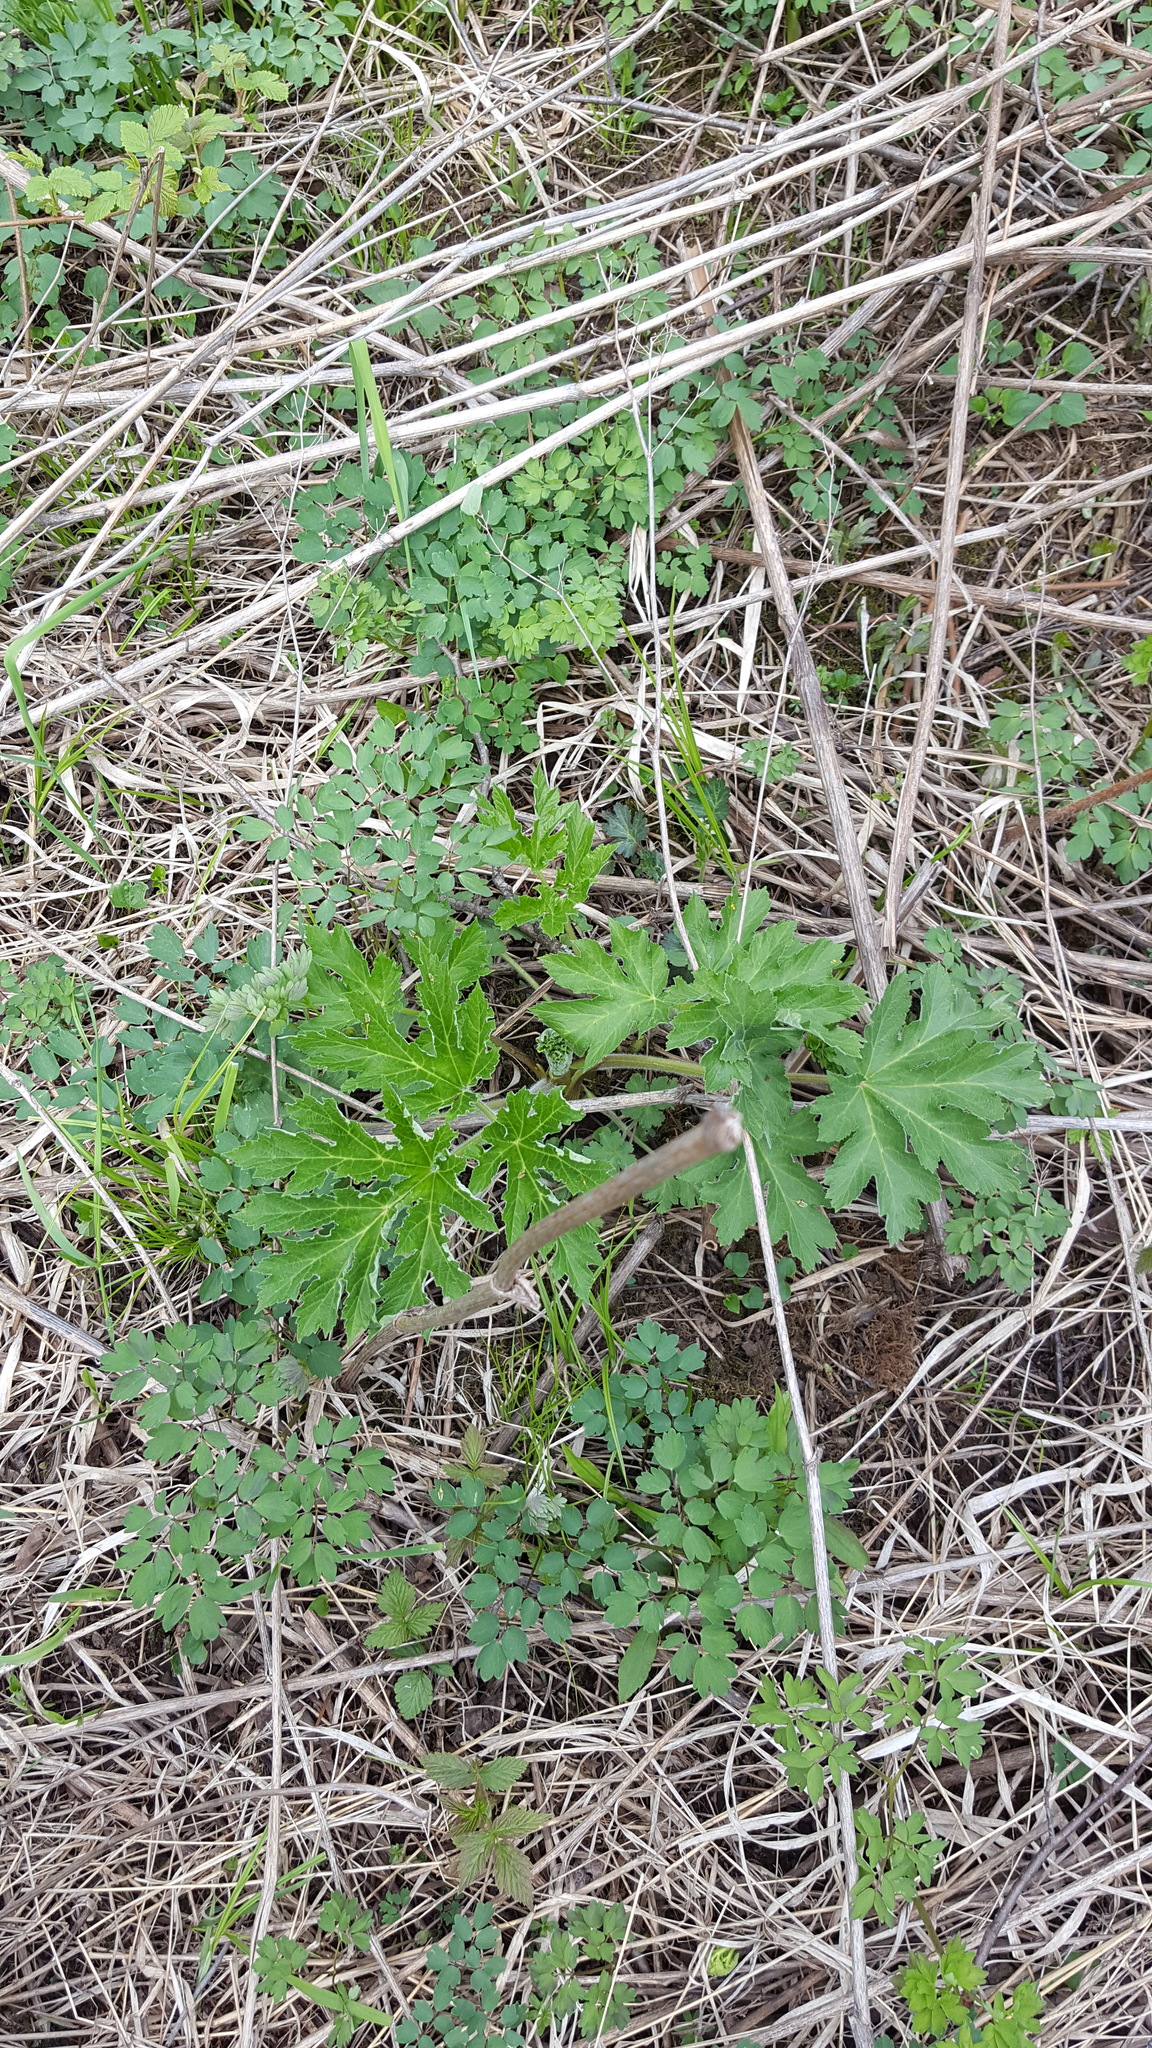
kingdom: Plantae
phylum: Tracheophyta
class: Magnoliopsida
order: Apiales
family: Apiaceae
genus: Heracleum
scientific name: Heracleum maximum
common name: American cow parsnip
